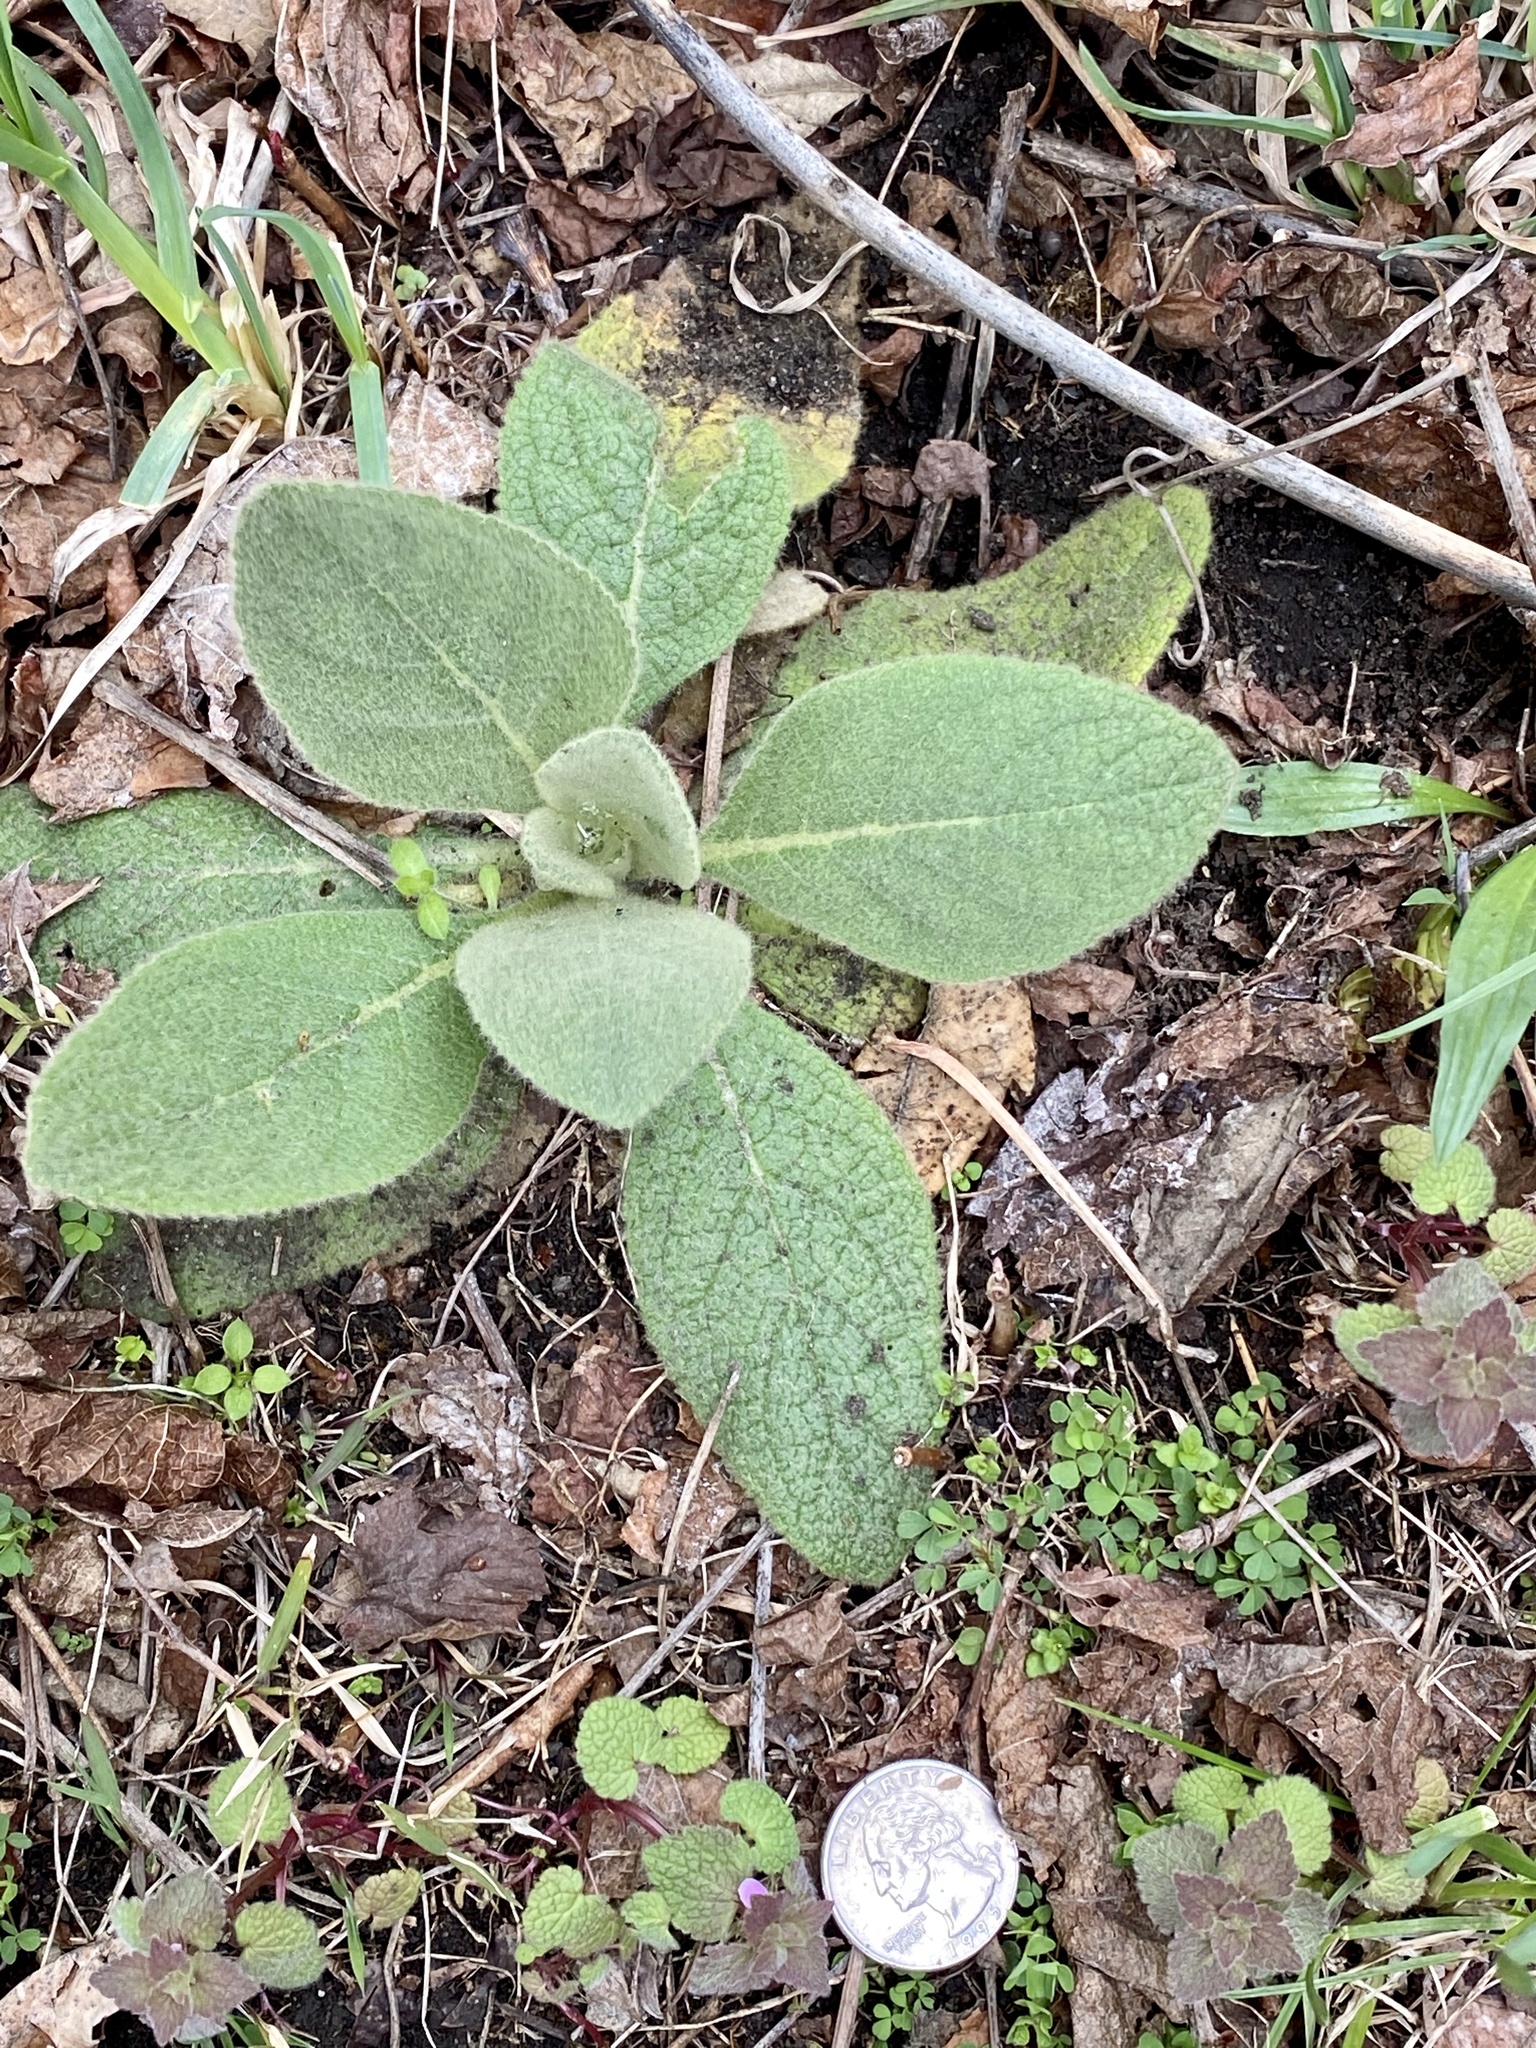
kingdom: Plantae
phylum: Tracheophyta
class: Magnoliopsida
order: Lamiales
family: Scrophulariaceae
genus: Verbascum
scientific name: Verbascum thapsus
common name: Common mullein
